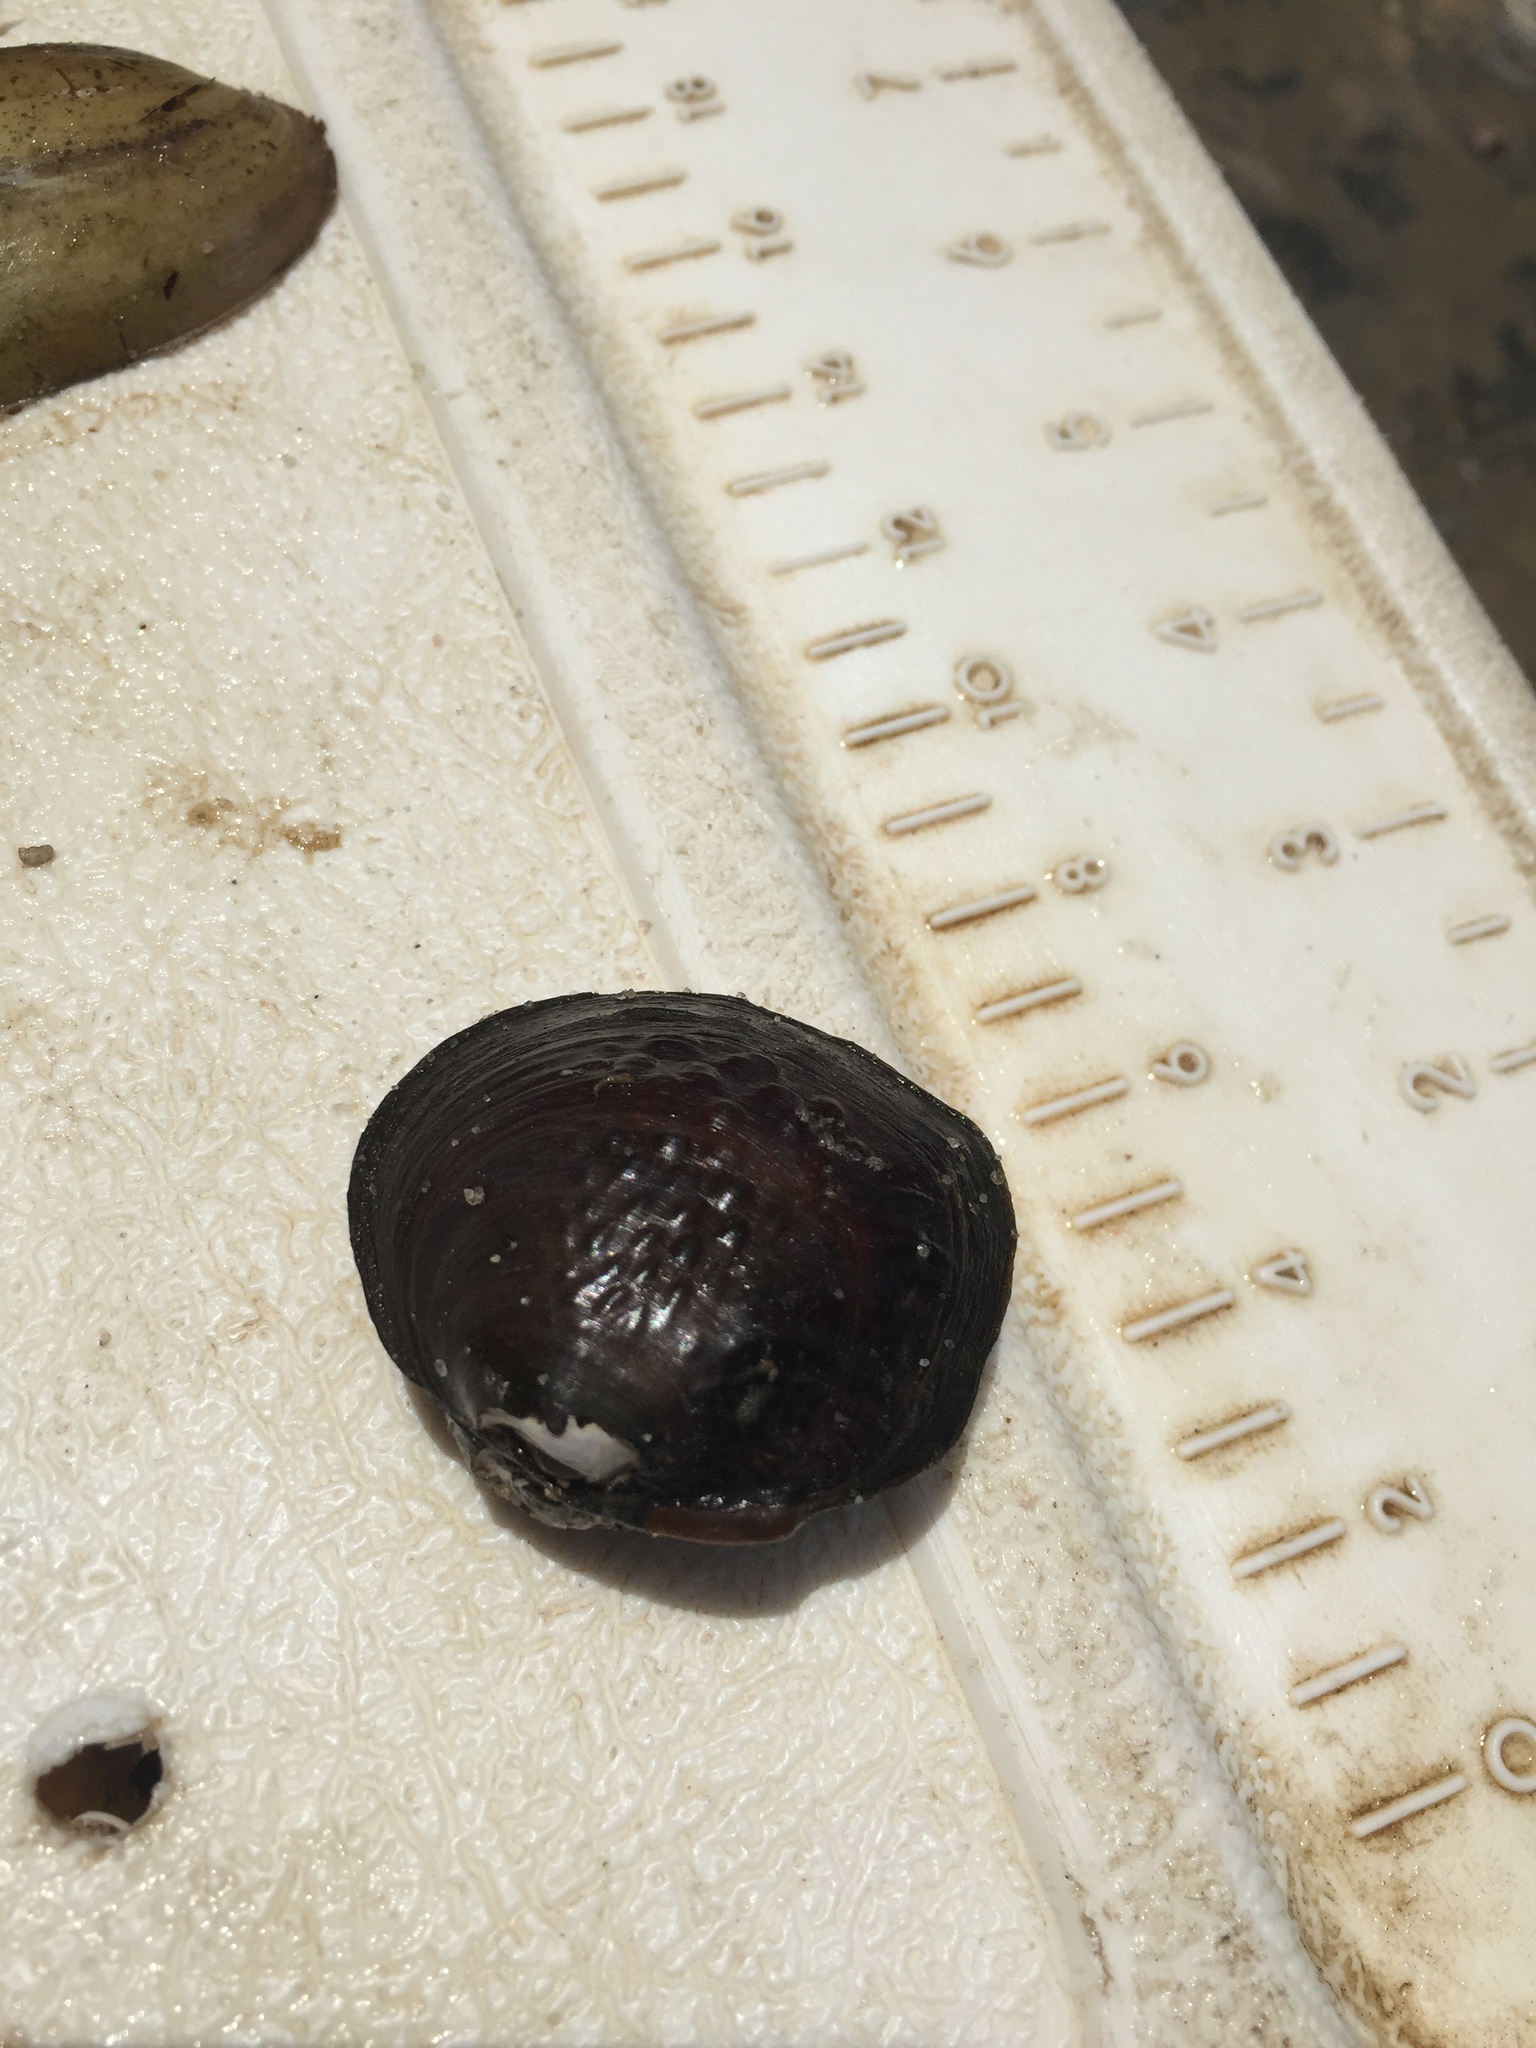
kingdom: Animalia
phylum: Mollusca
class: Bivalvia
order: Unionida
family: Unionidae
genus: Cyclonaias
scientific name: Cyclonaias pustulosa
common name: Pimpleback
